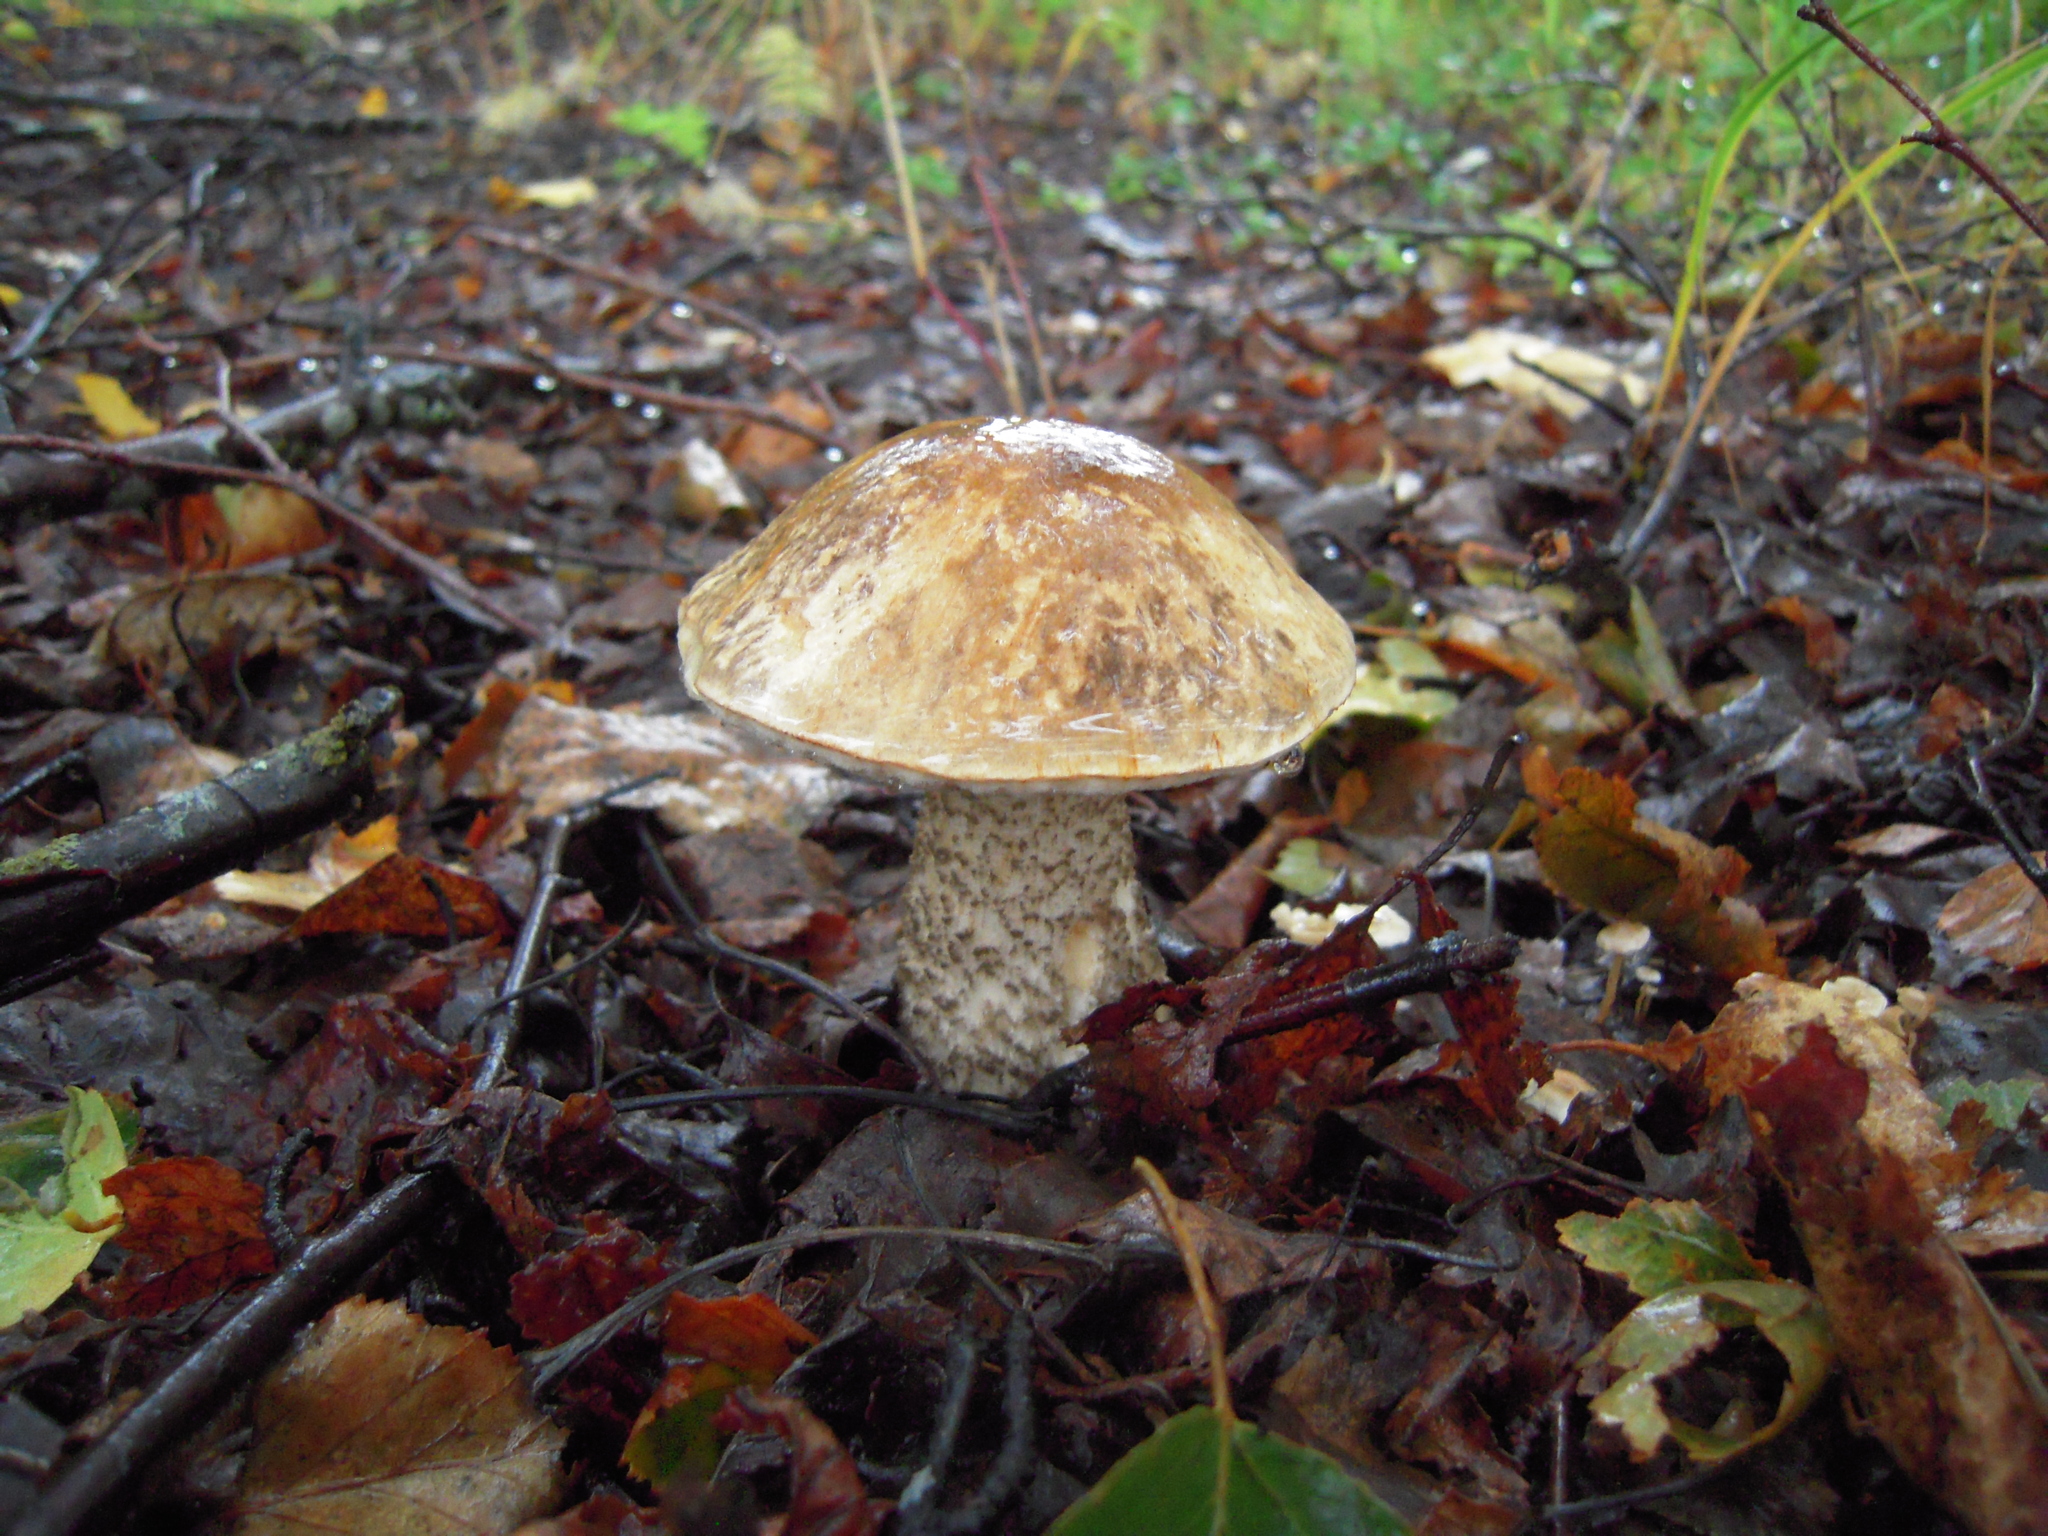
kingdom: Fungi
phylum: Basidiomycota
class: Agaricomycetes
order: Boletales
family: Boletaceae
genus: Leccinum
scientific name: Leccinum alaskanum
